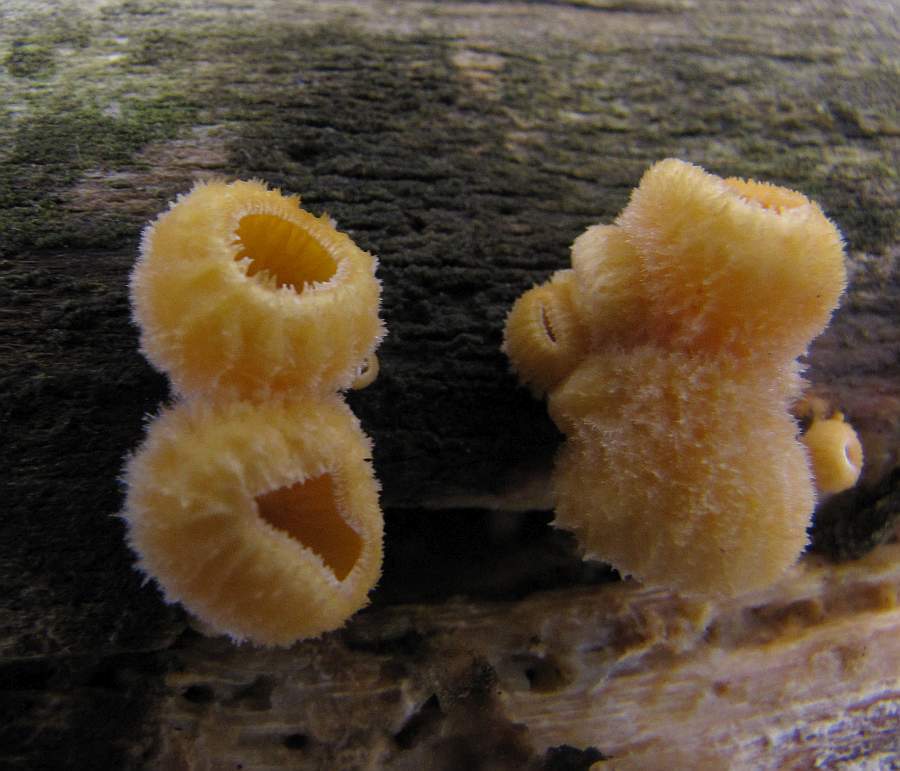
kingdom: Fungi
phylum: Basidiomycota
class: Agaricomycetes
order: Agaricales
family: Phyllotopsidaceae
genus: Phyllotopsis
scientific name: Phyllotopsis nidulans
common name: Orange mock oyster
